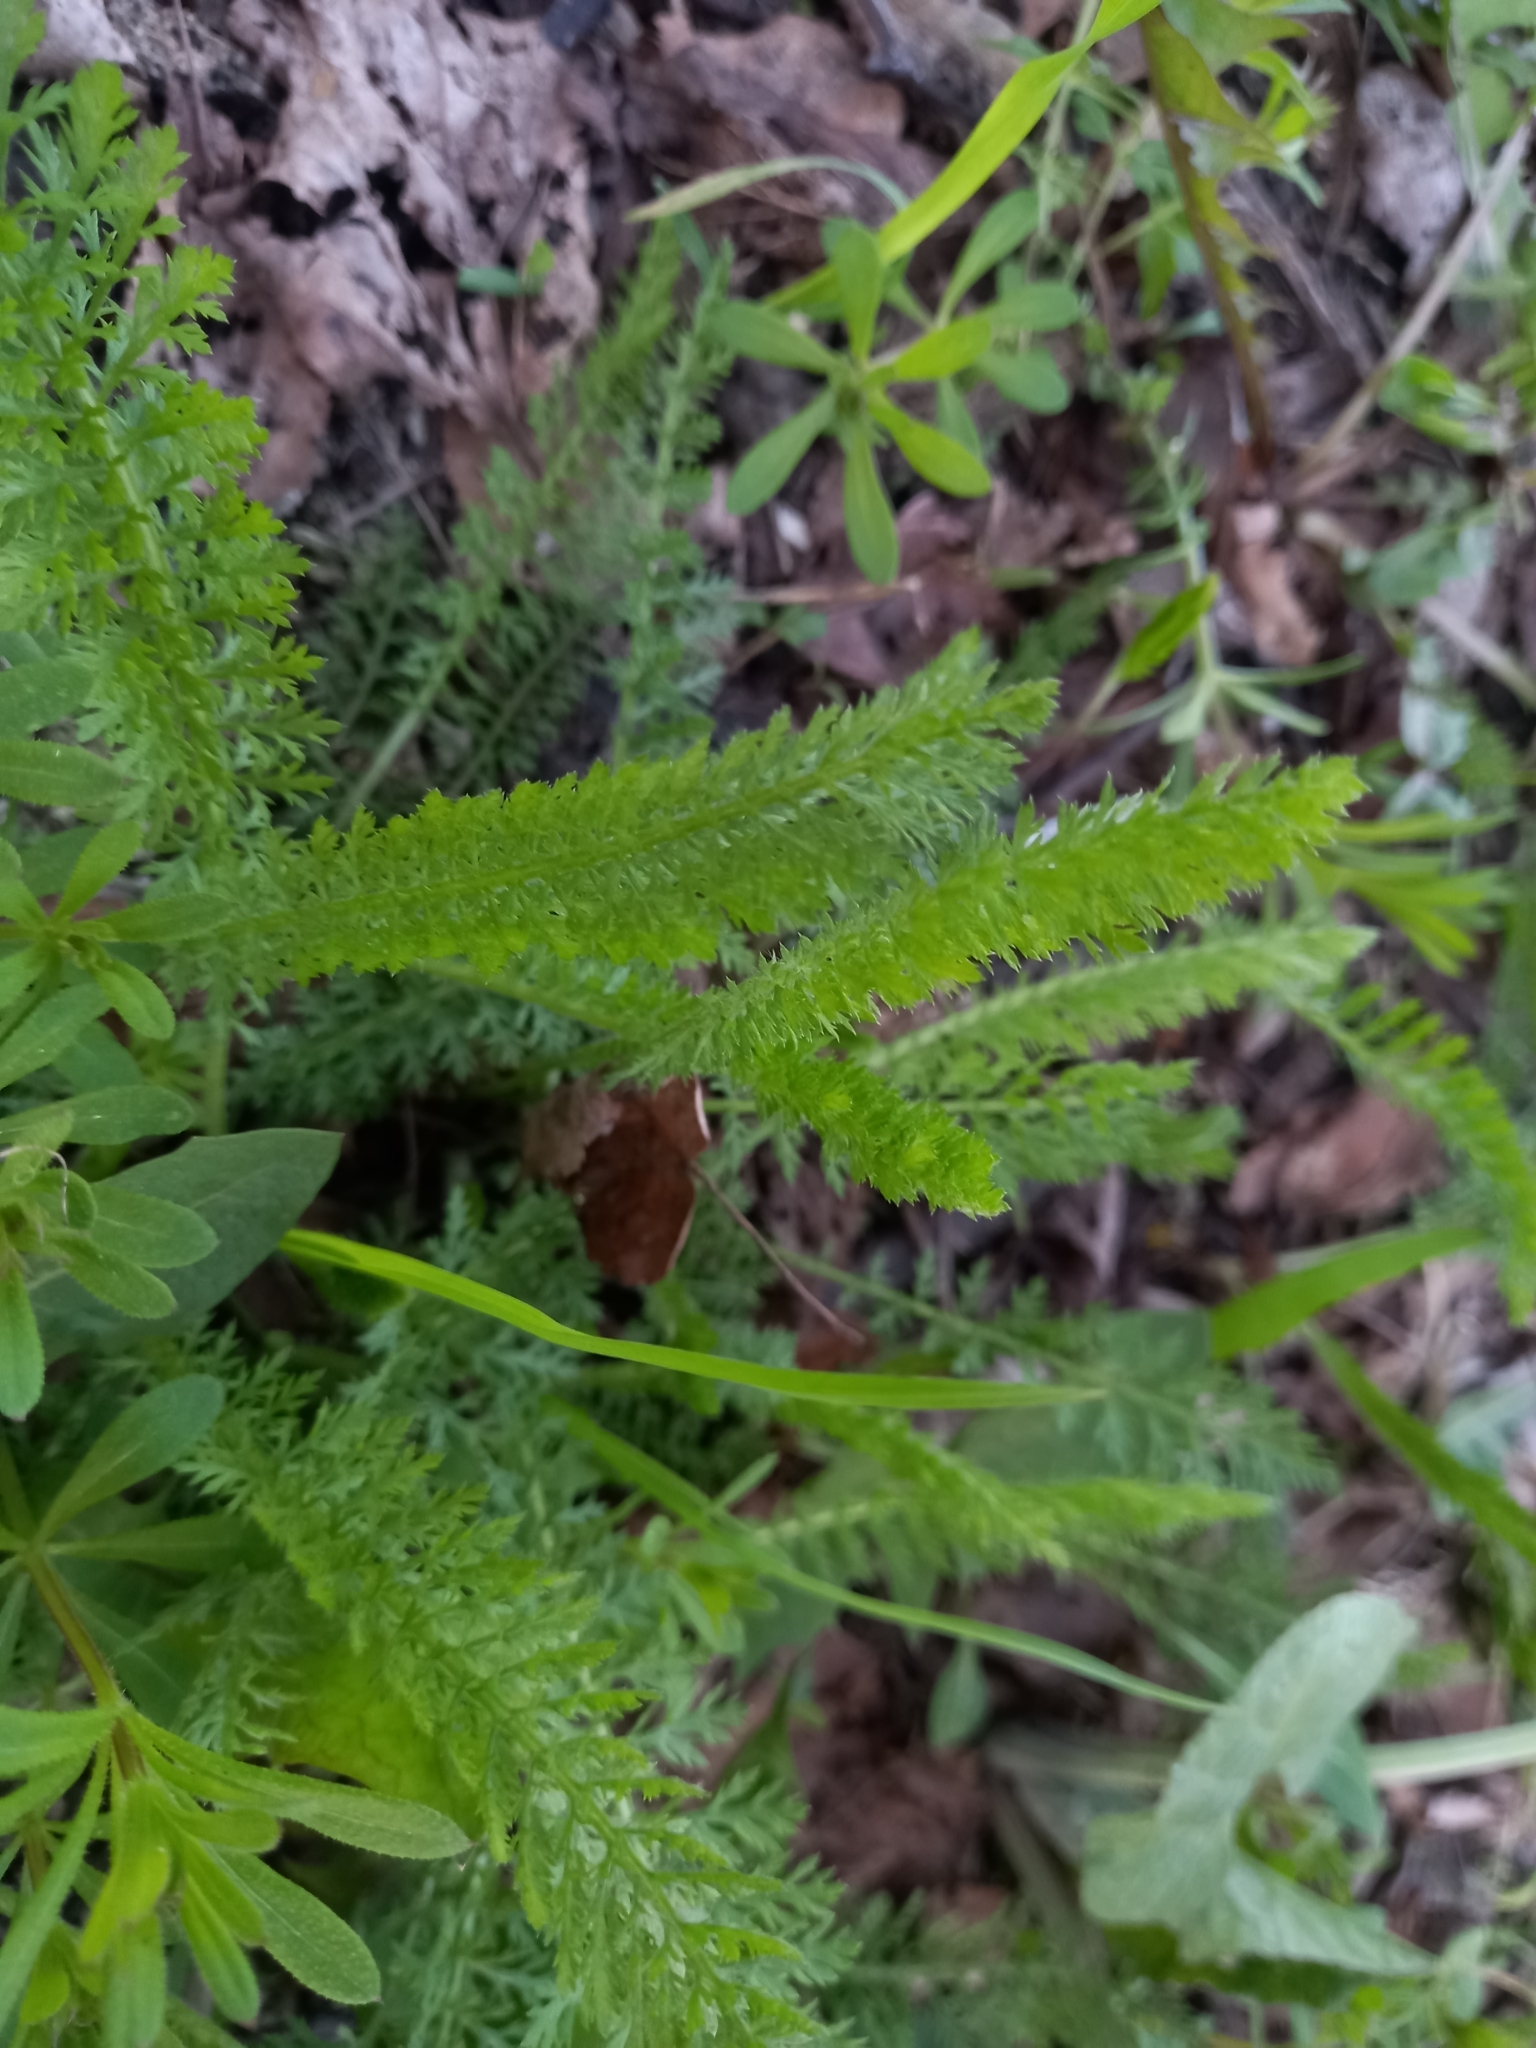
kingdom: Plantae
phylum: Tracheophyta
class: Magnoliopsida
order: Asterales
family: Asteraceae
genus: Achillea
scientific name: Achillea millefolium
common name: Yarrow
